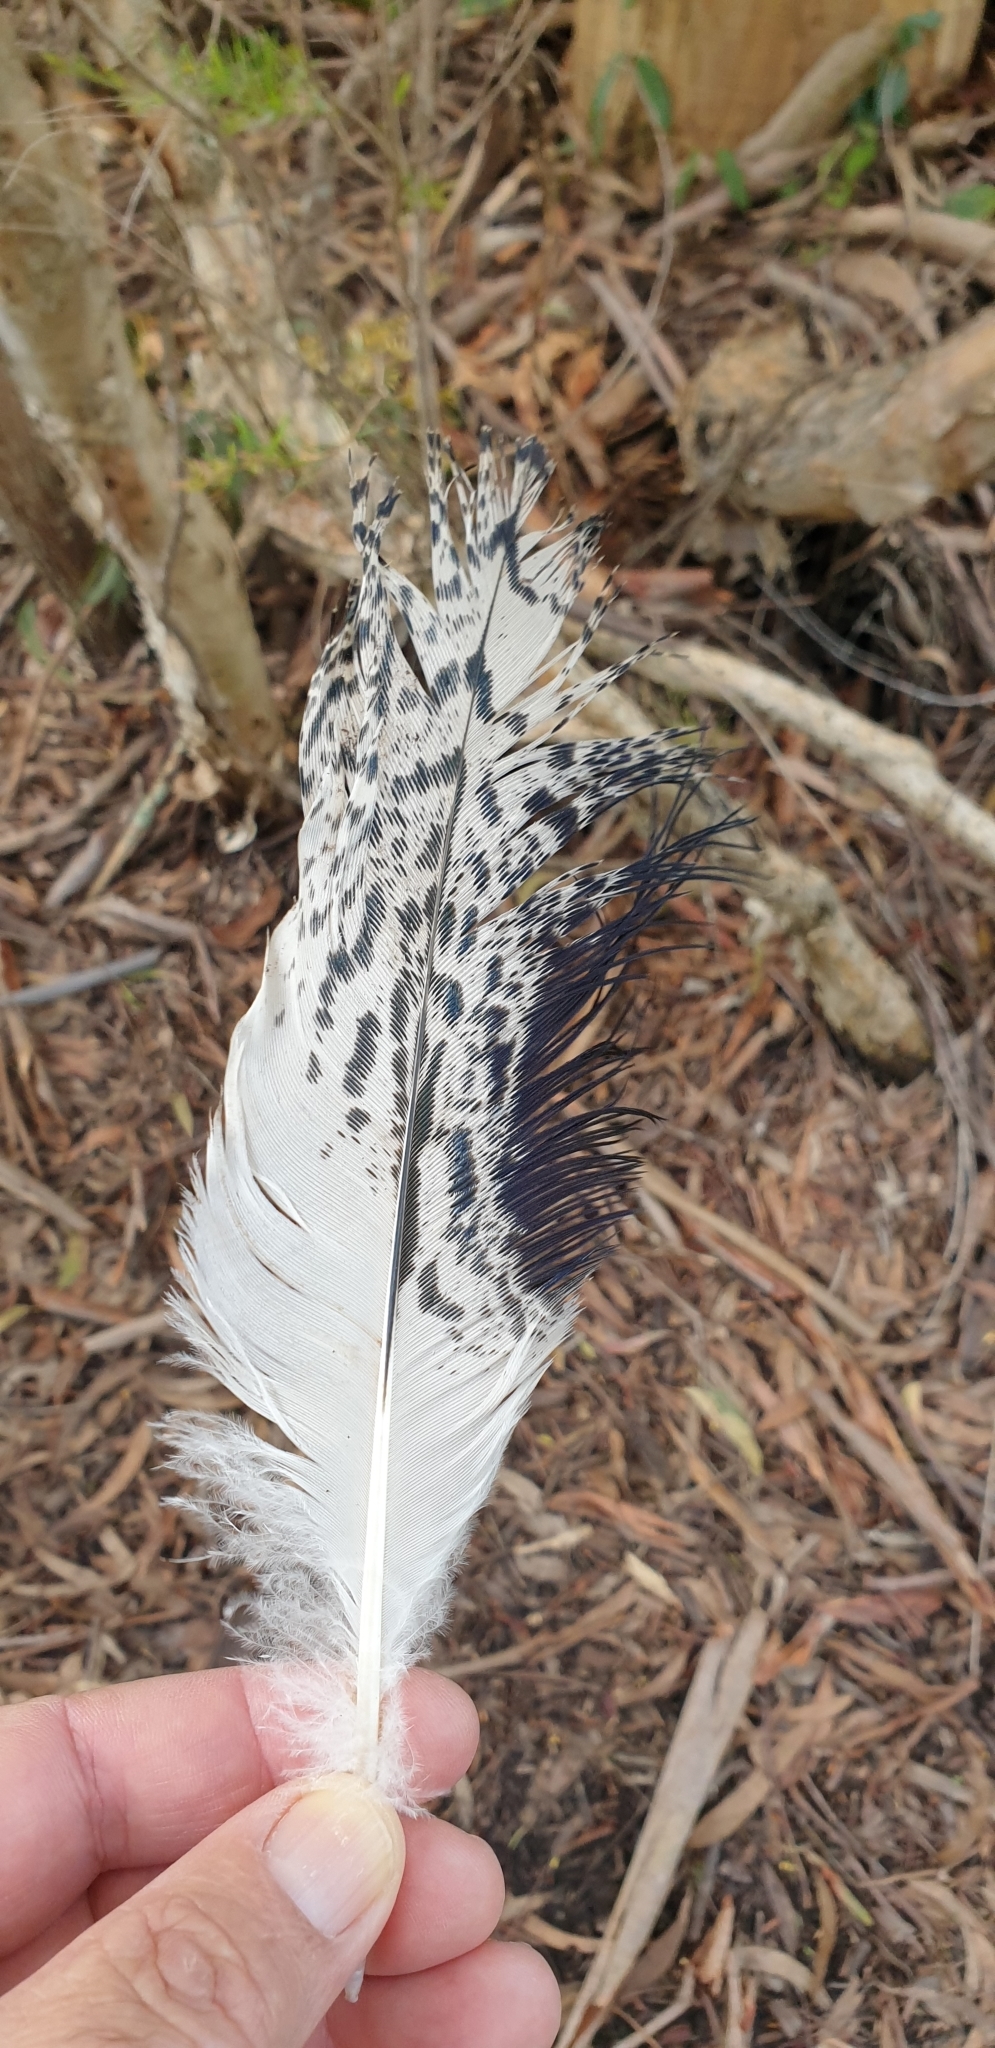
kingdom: Animalia
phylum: Chordata
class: Aves
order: Pelecaniformes
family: Threskiornithidae
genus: Threskiornis
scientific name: Threskiornis molucca
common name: Australian white ibis
